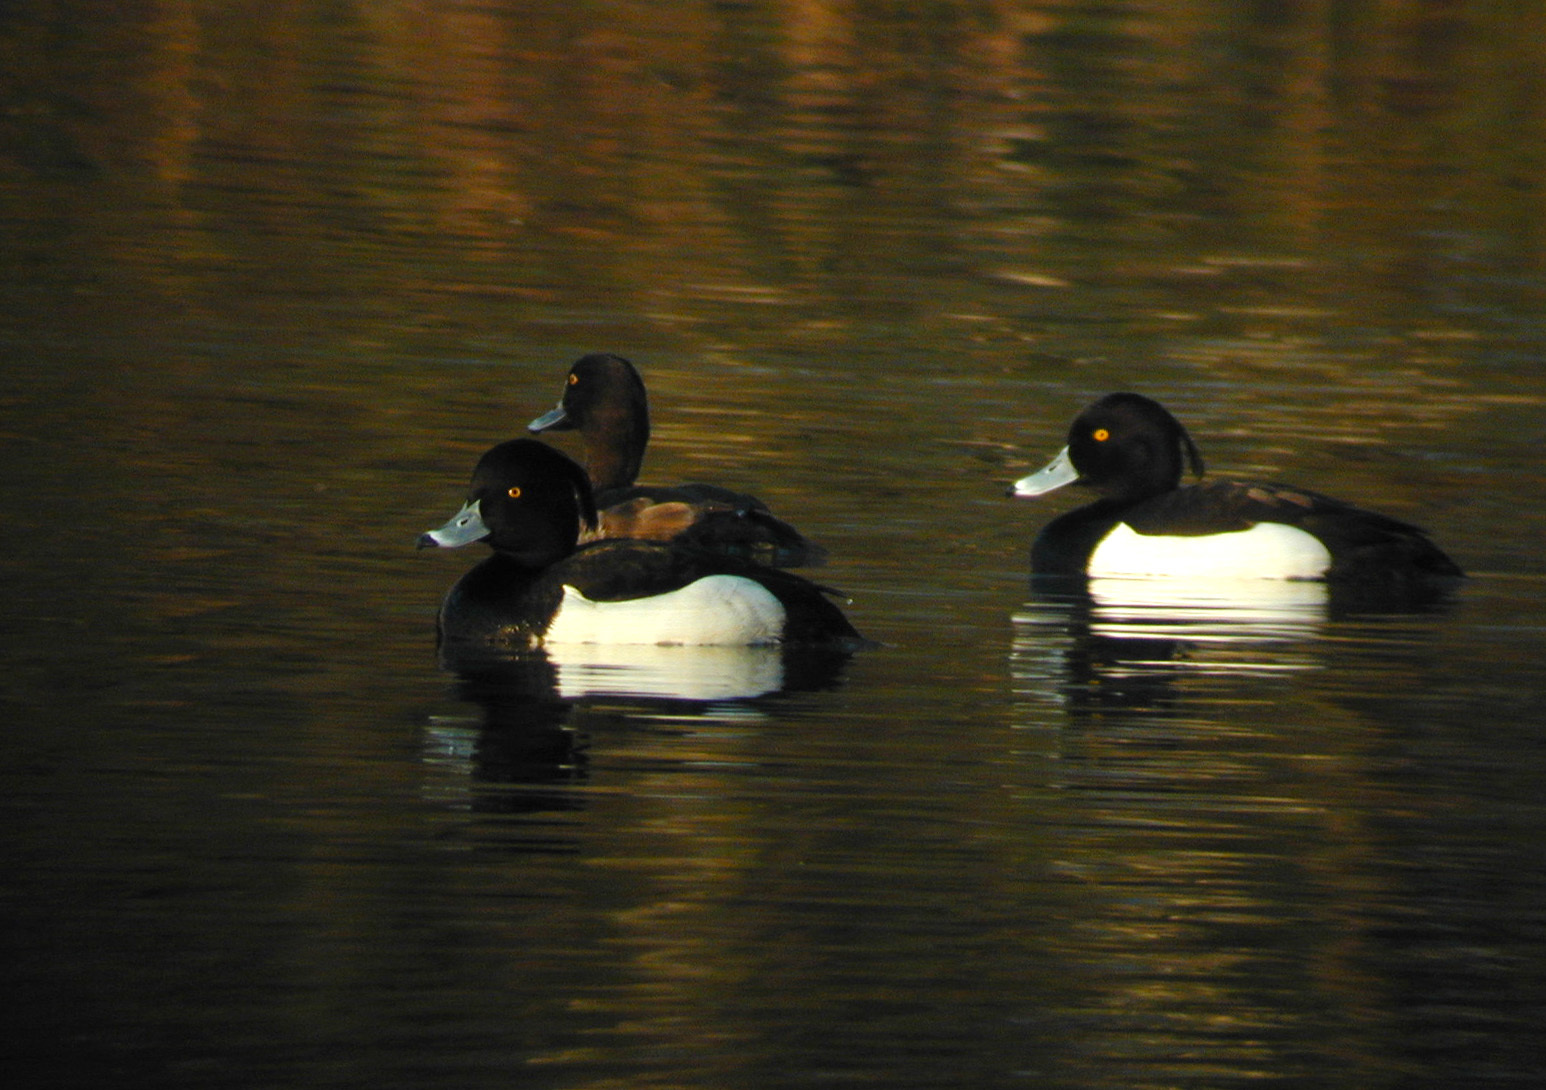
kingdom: Animalia
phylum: Chordata
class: Aves
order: Anseriformes
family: Anatidae
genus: Aythya
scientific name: Aythya fuligula
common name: Tufted duck
